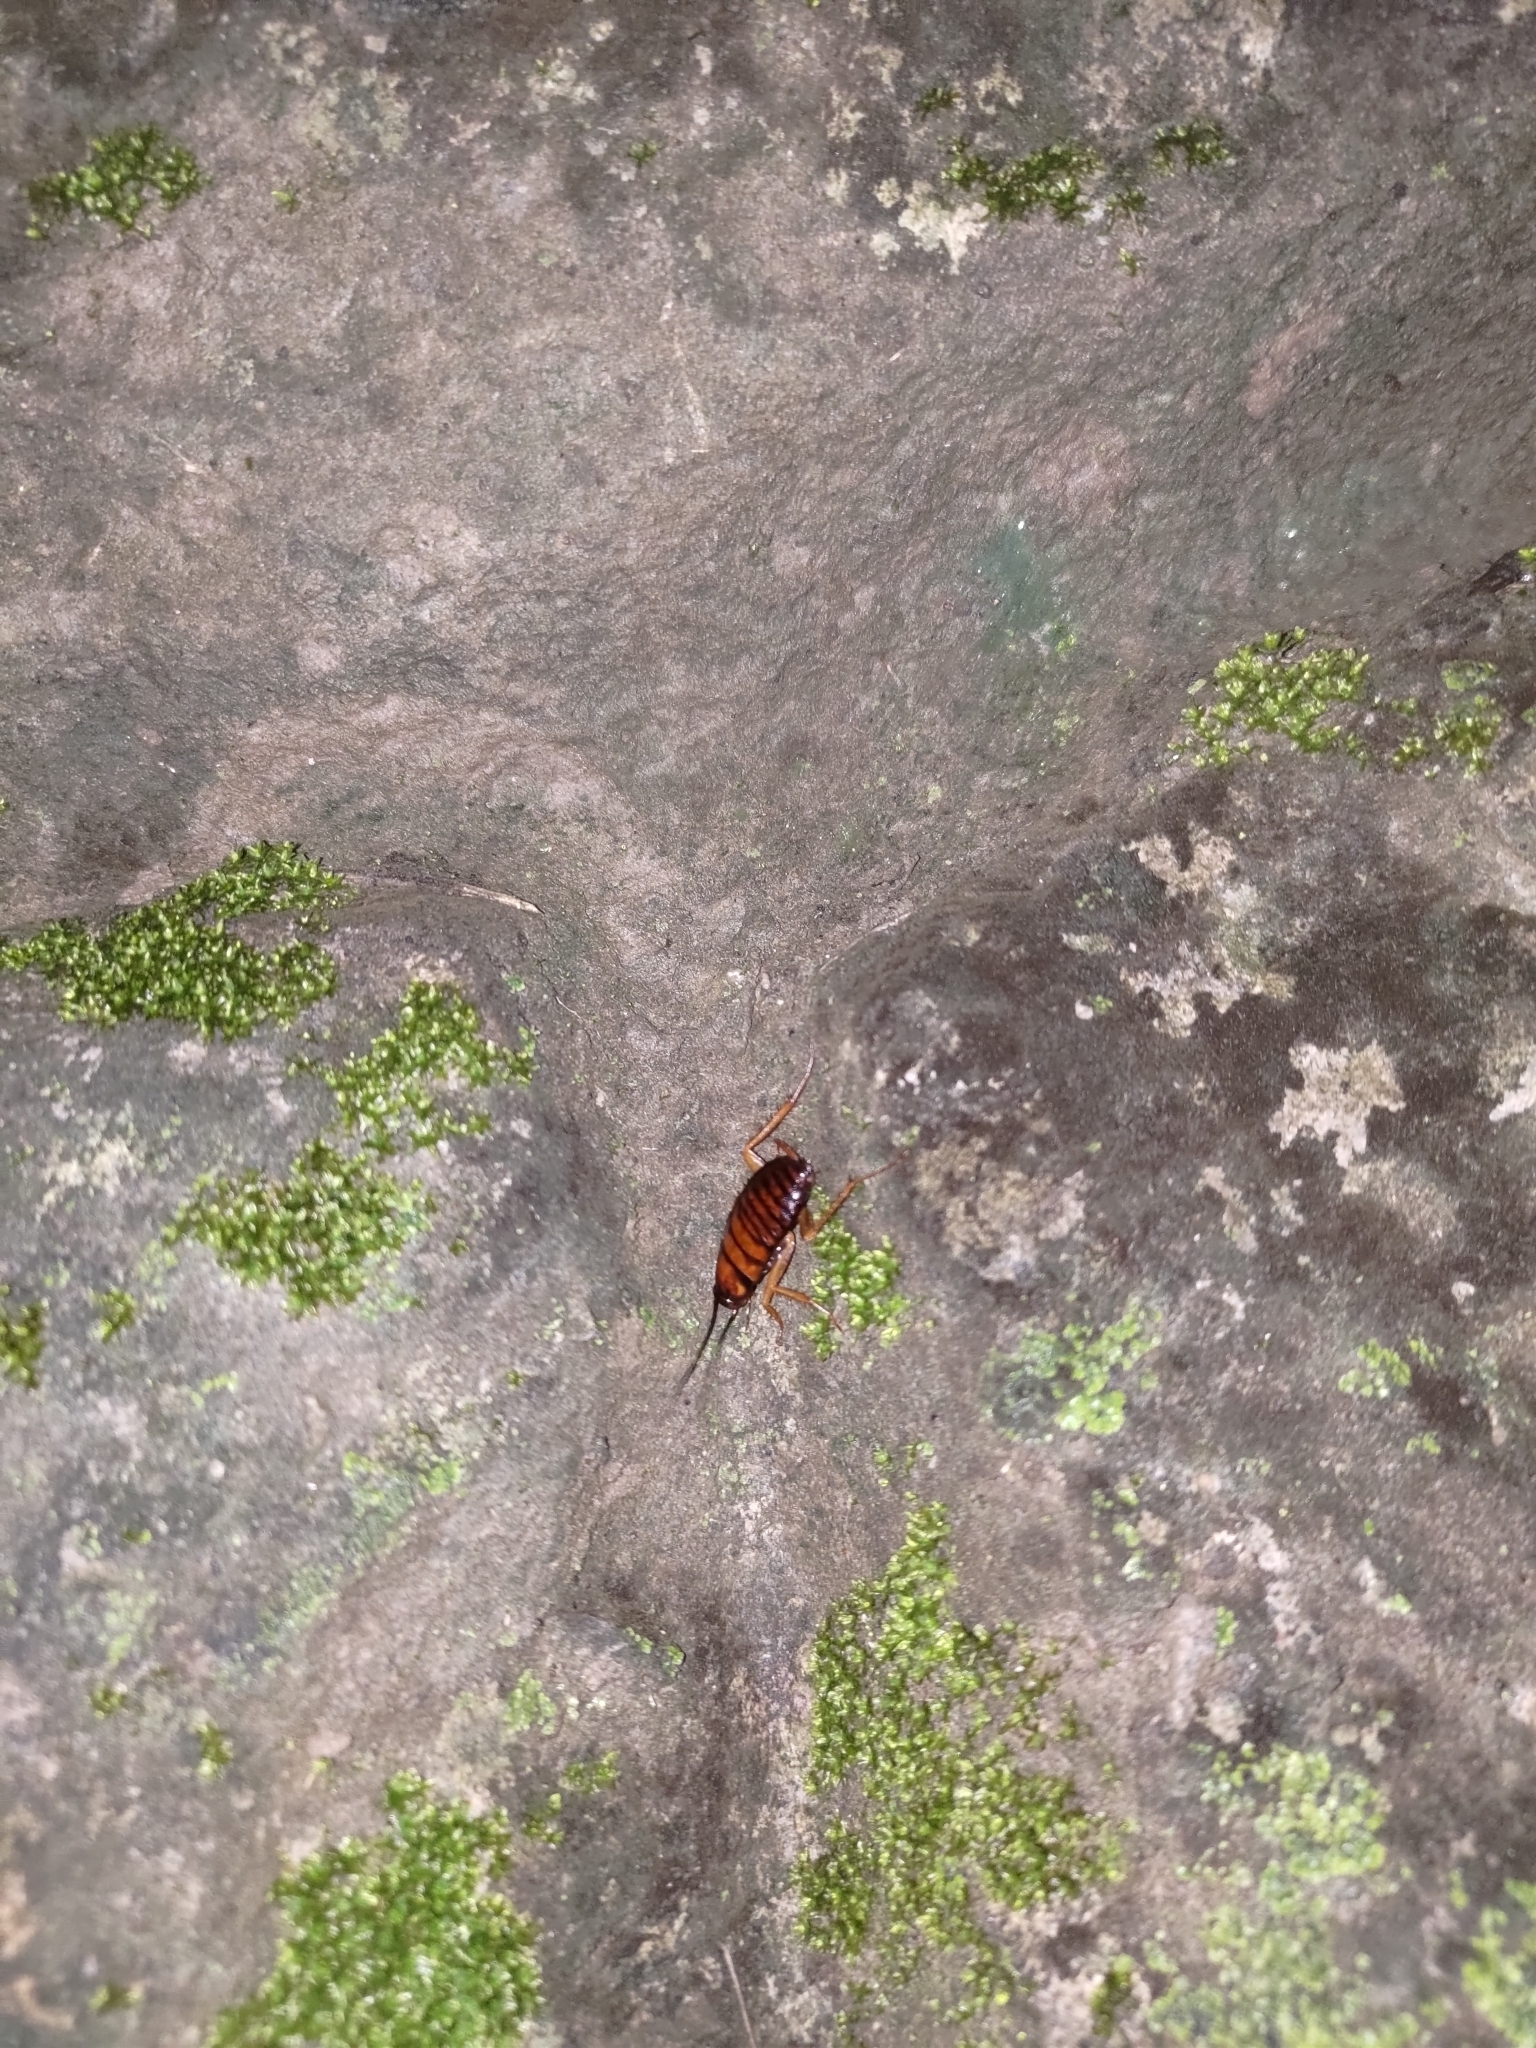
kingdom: Animalia
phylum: Arthropoda
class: Insecta
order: Blattodea
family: Blattidae
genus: Periplaneta
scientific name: Periplaneta americana
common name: American cockroach
